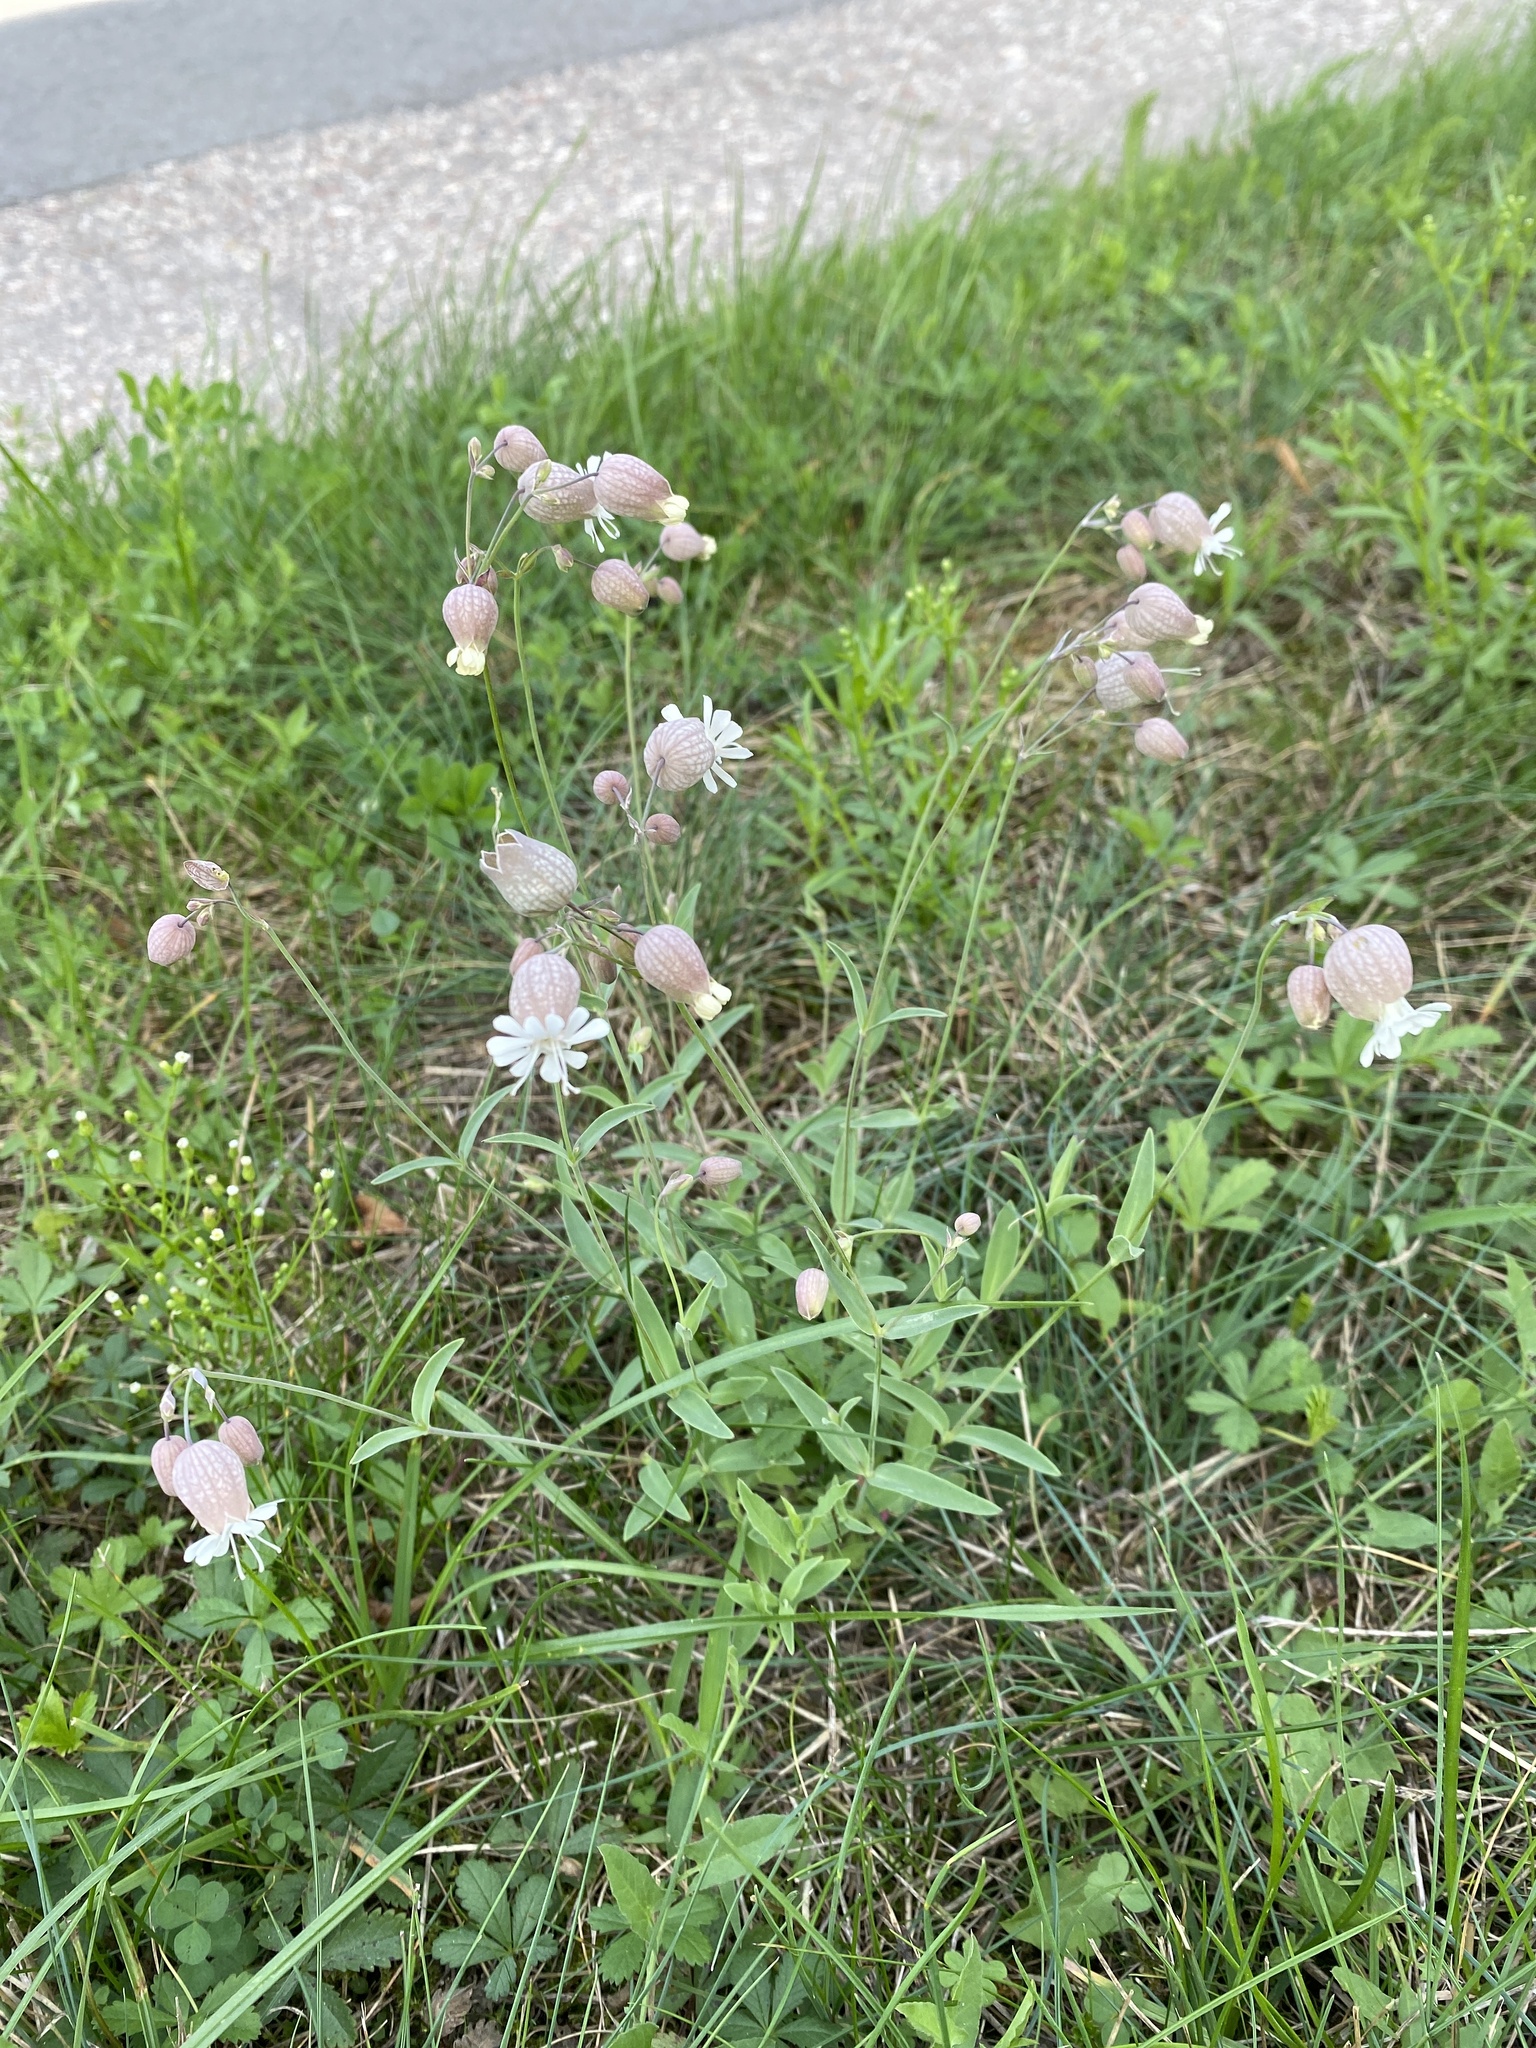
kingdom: Plantae
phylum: Tracheophyta
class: Magnoliopsida
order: Caryophyllales
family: Caryophyllaceae
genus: Silene
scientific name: Silene vulgaris
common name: Bladder campion
